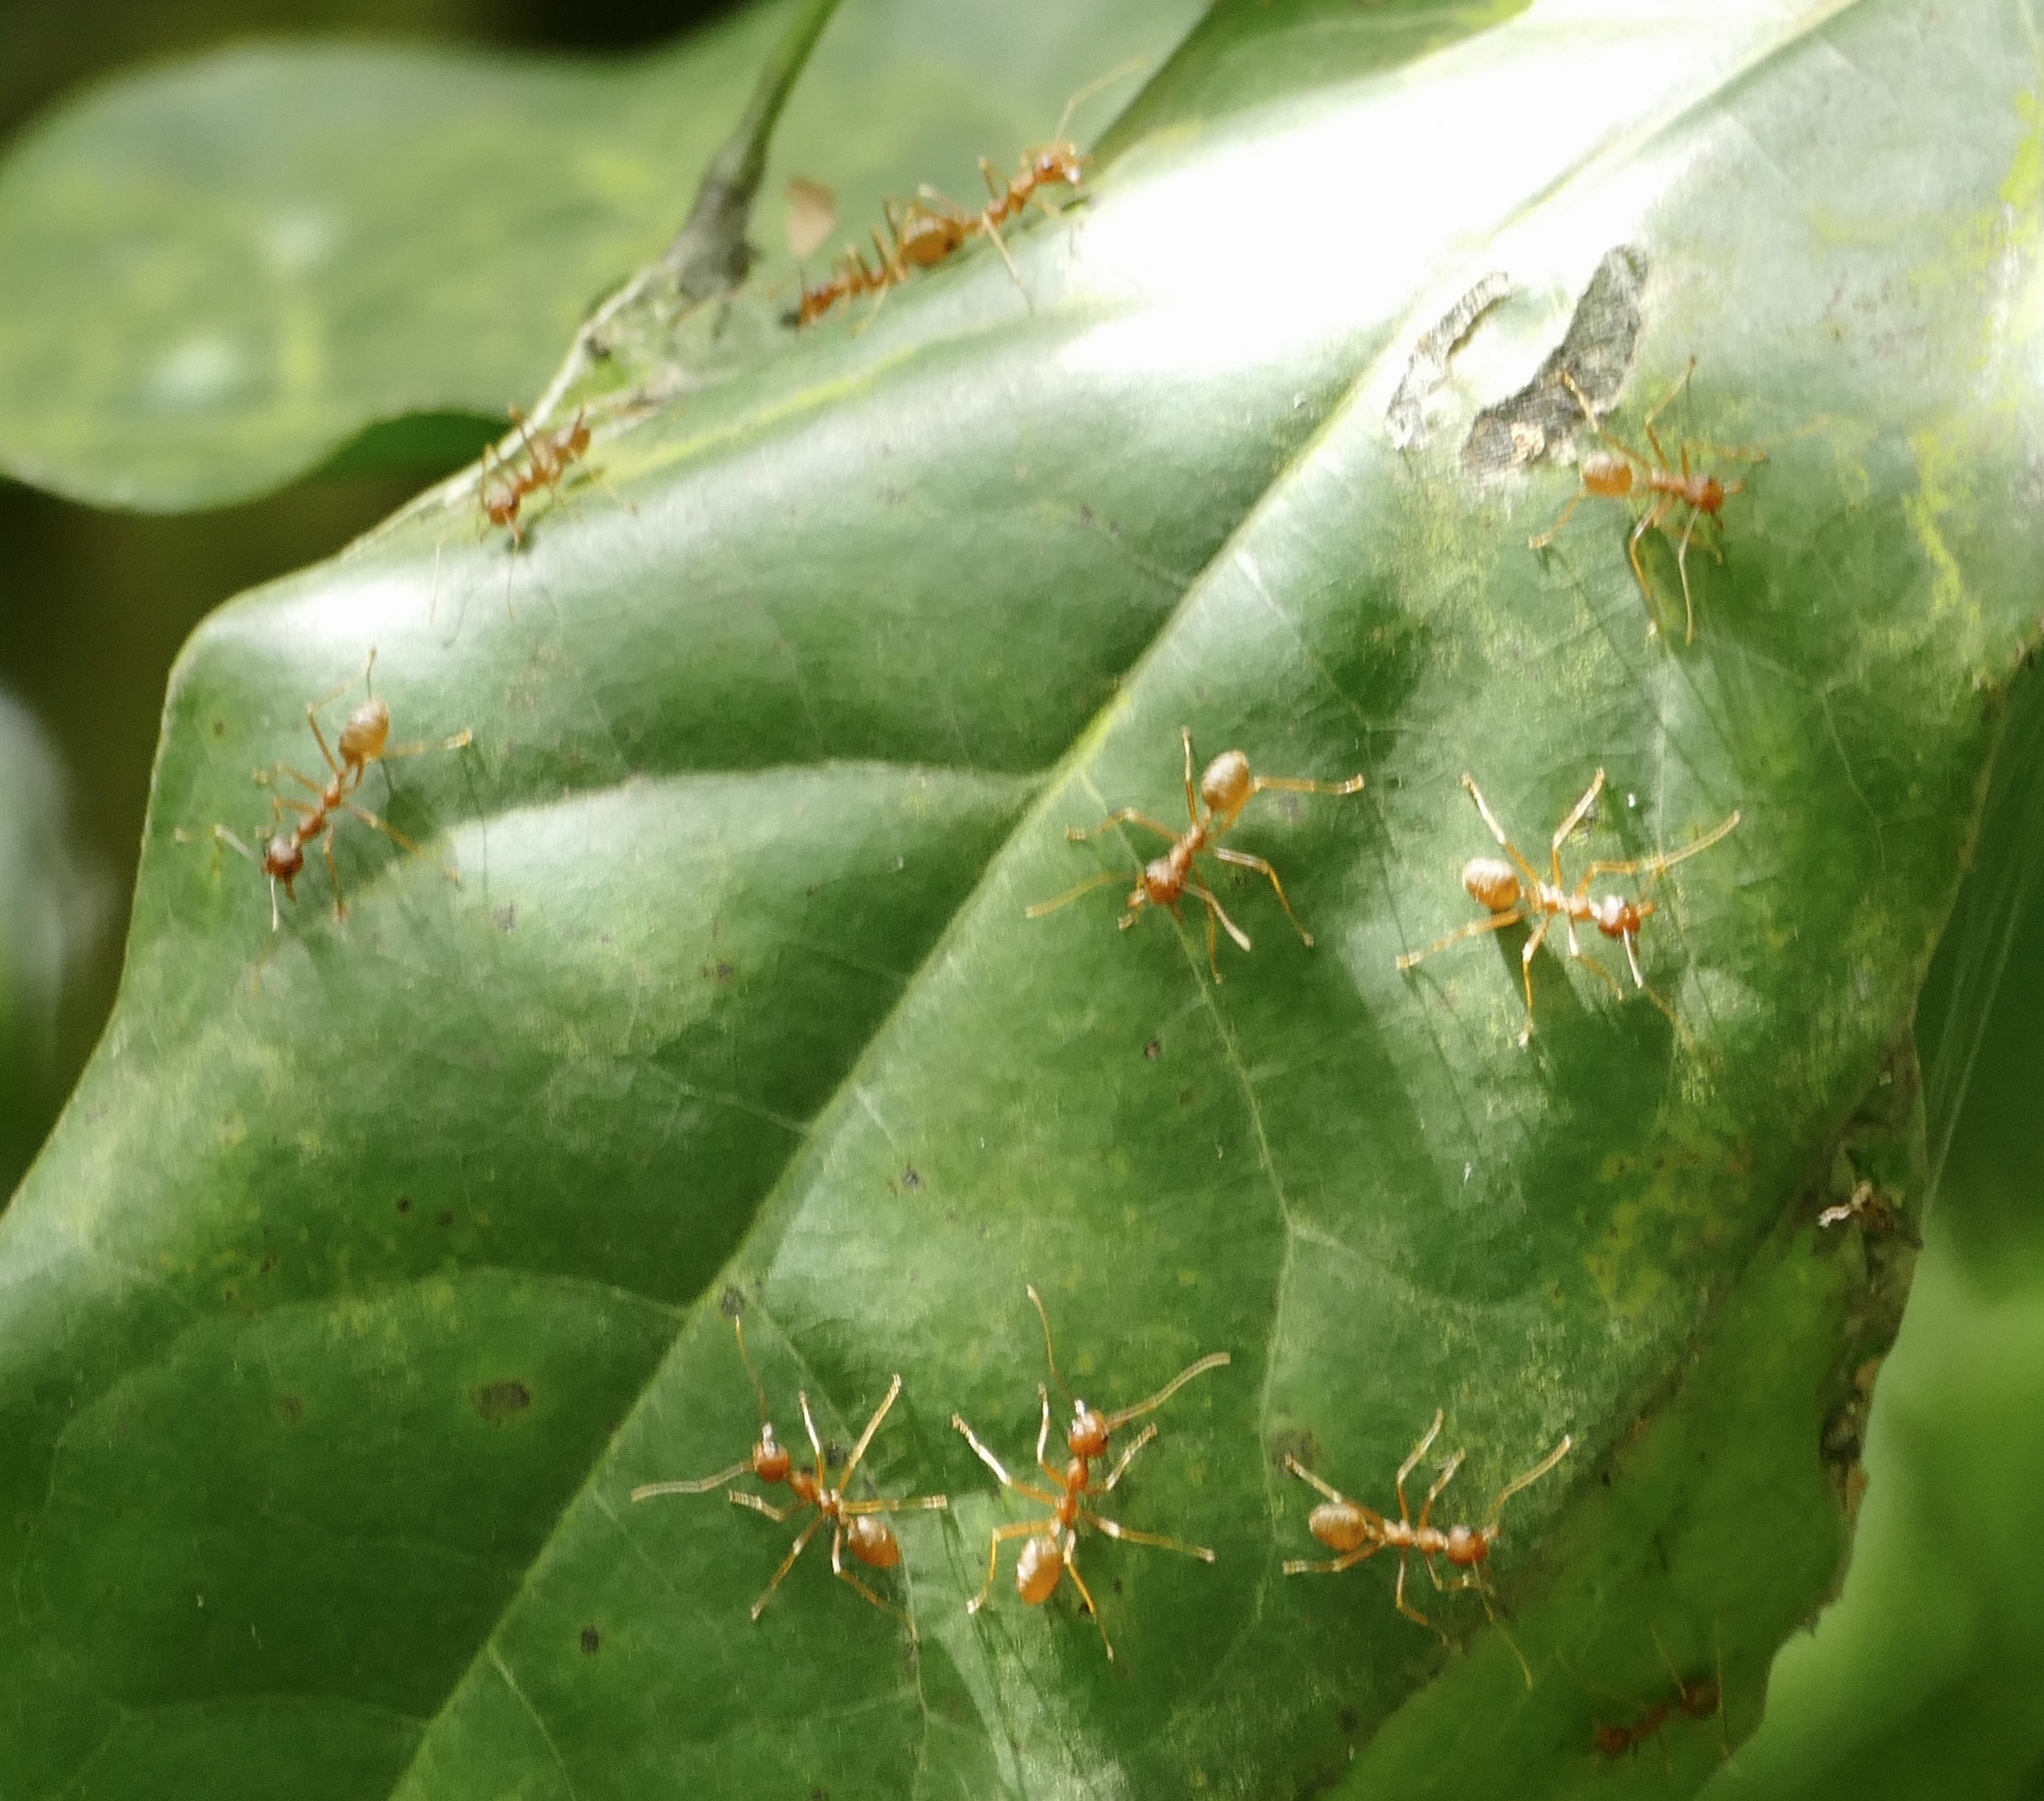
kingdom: Animalia
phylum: Arthropoda
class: Insecta
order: Hymenoptera
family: Formicidae
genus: Oecophylla
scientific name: Oecophylla longinoda
